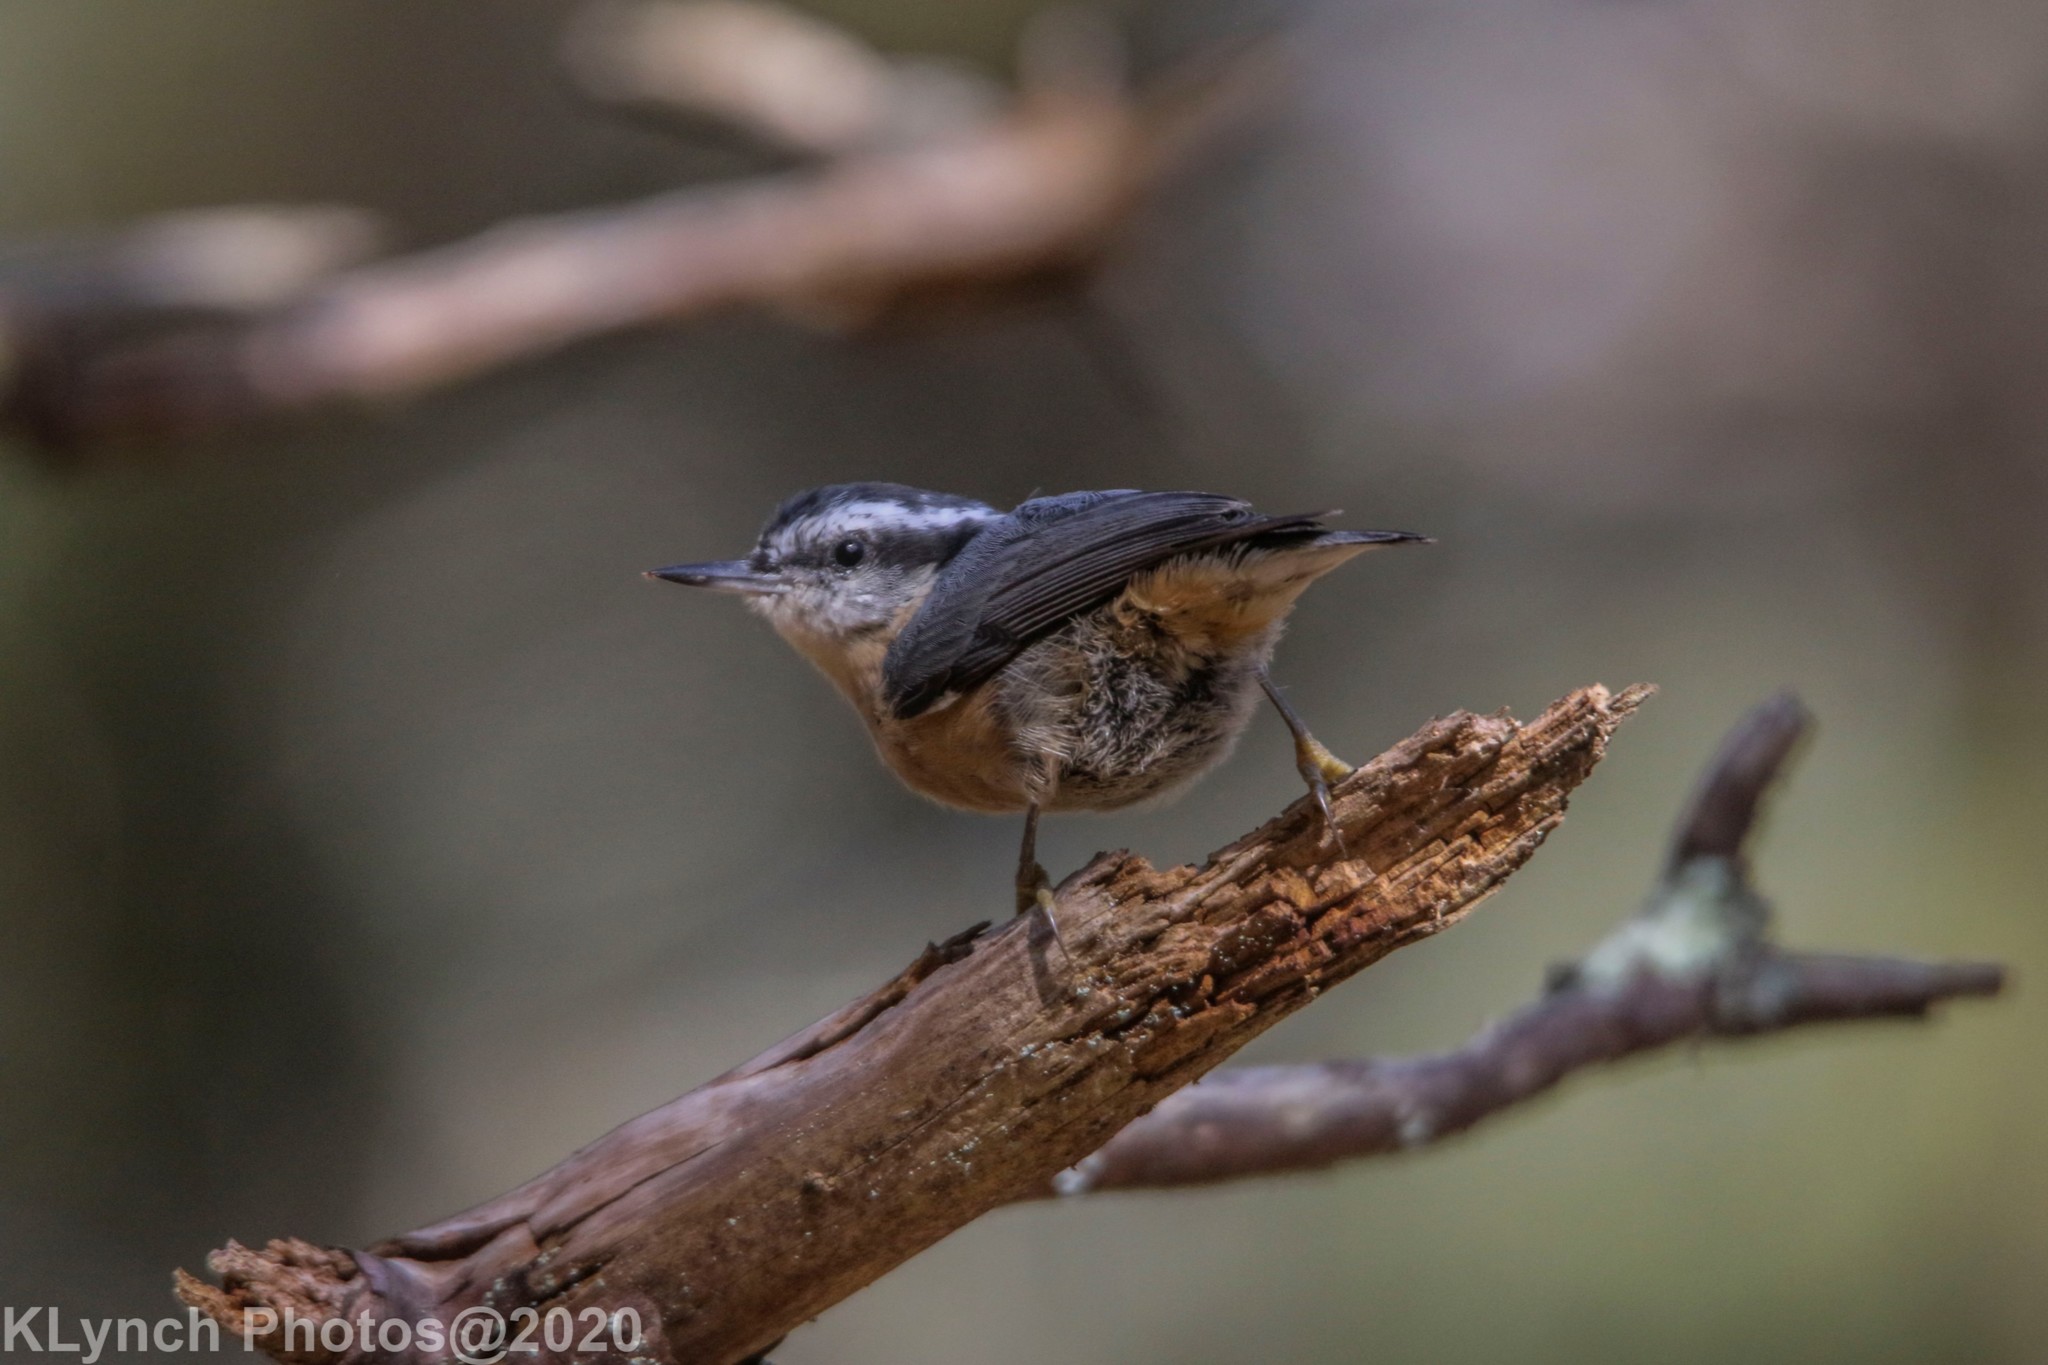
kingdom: Animalia
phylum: Chordata
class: Aves
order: Passeriformes
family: Sittidae
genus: Sitta
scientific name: Sitta canadensis
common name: Red-breasted nuthatch
